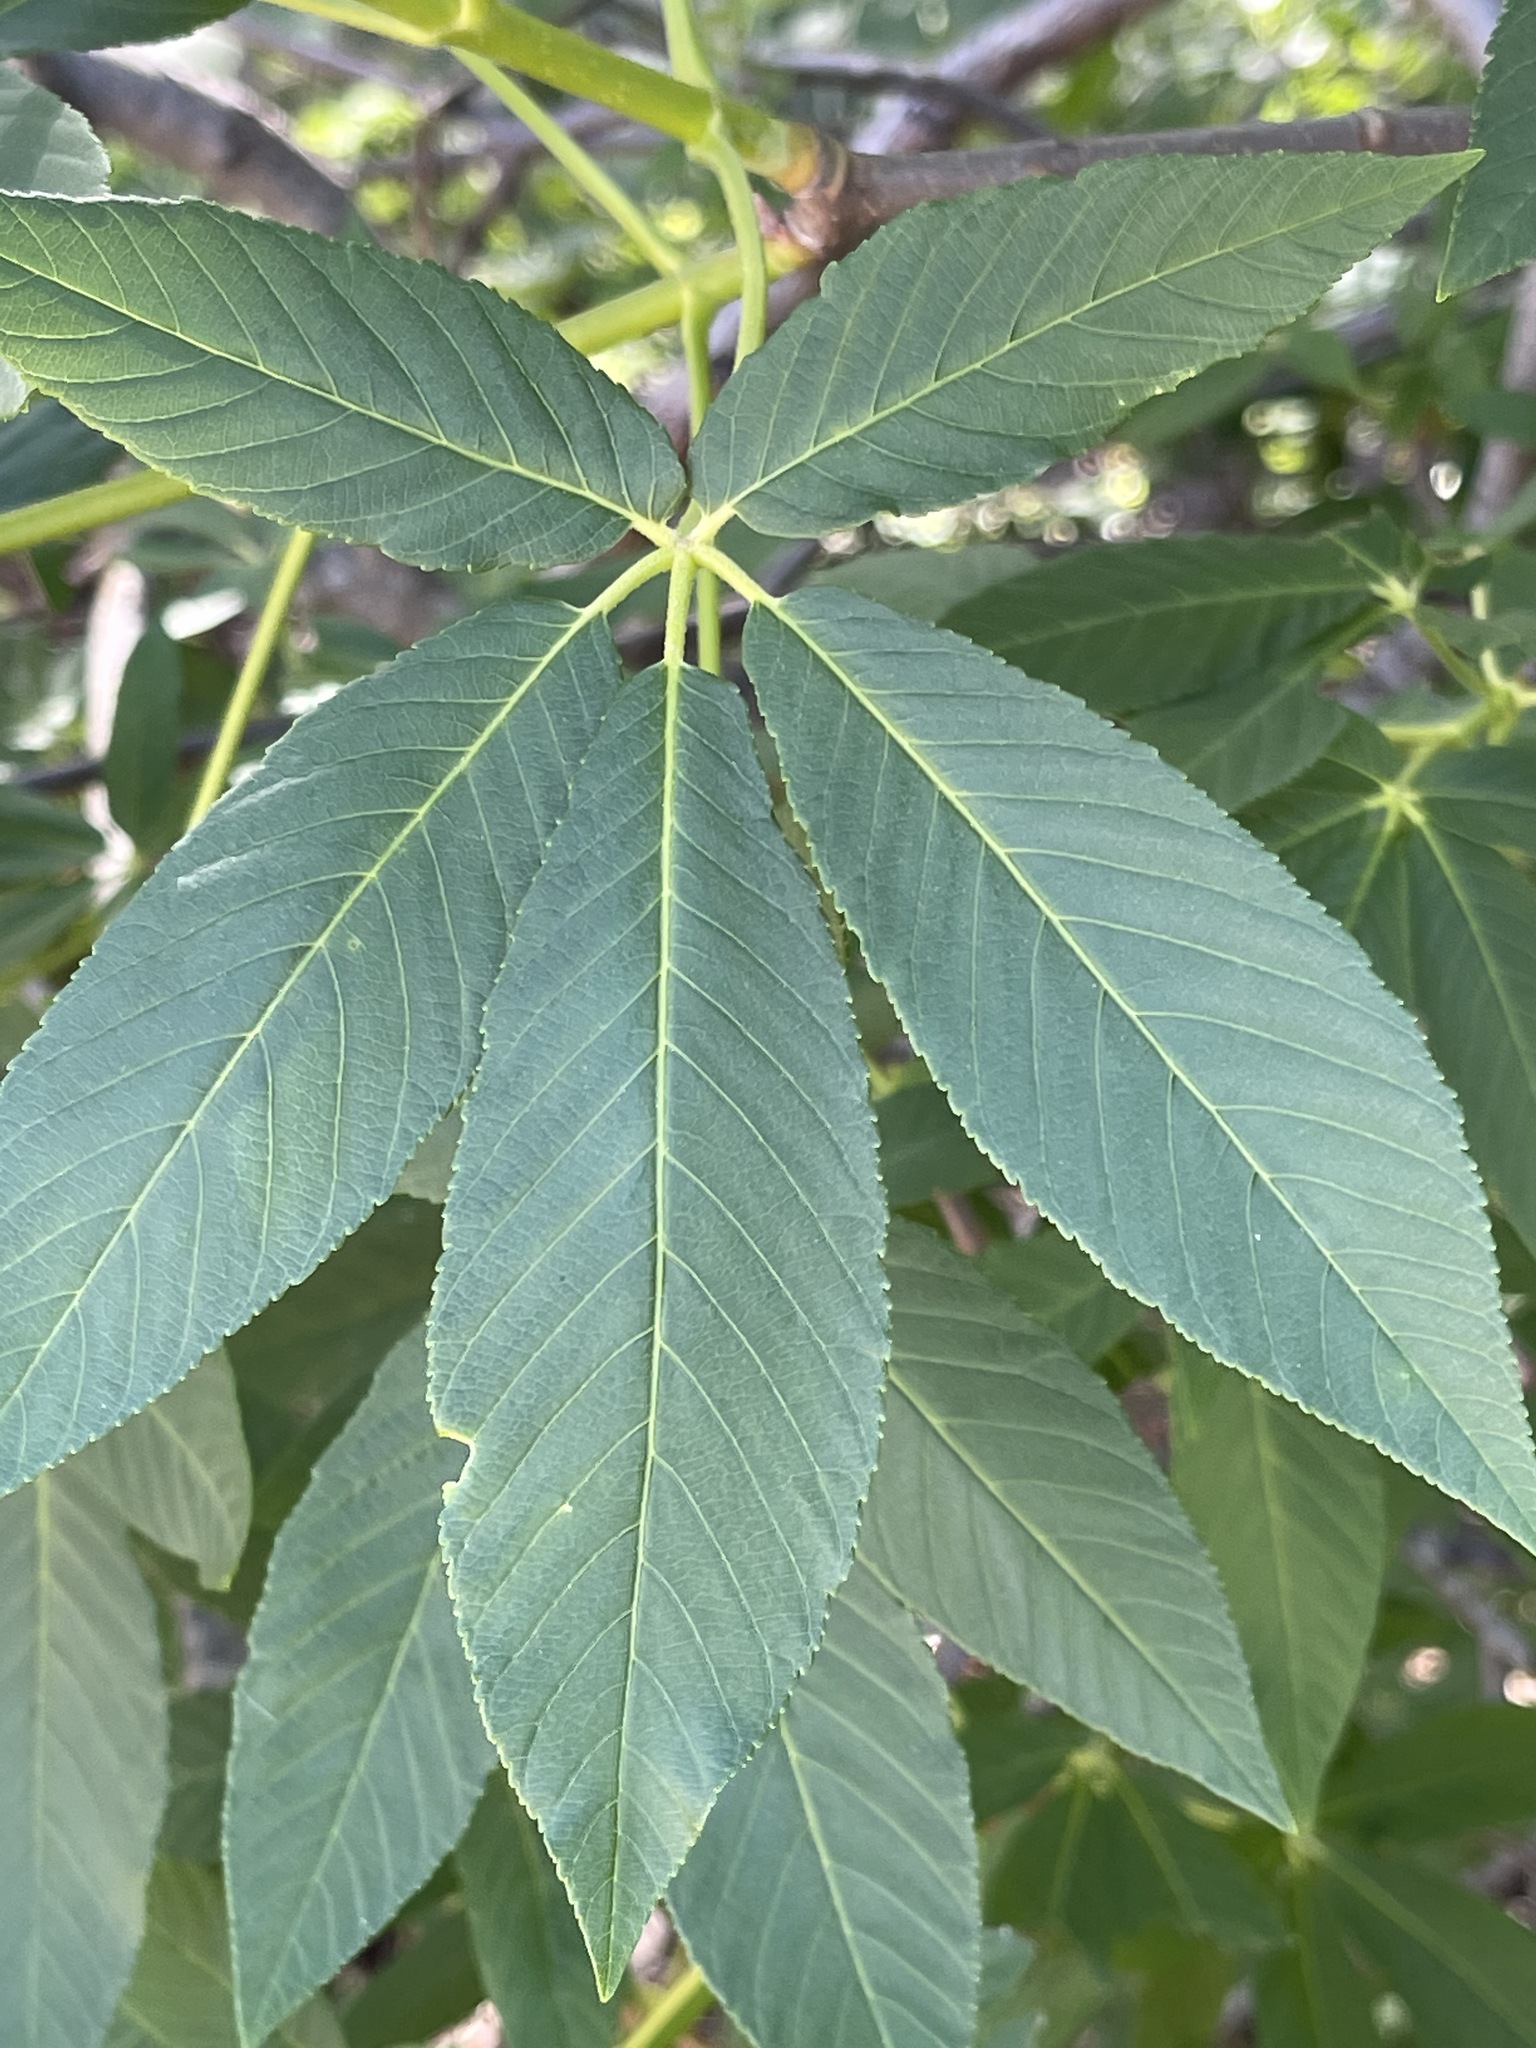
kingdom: Plantae
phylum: Tracheophyta
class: Magnoliopsida
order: Sapindales
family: Sapindaceae
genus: Aesculus
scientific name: Aesculus californica
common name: California buckeye
